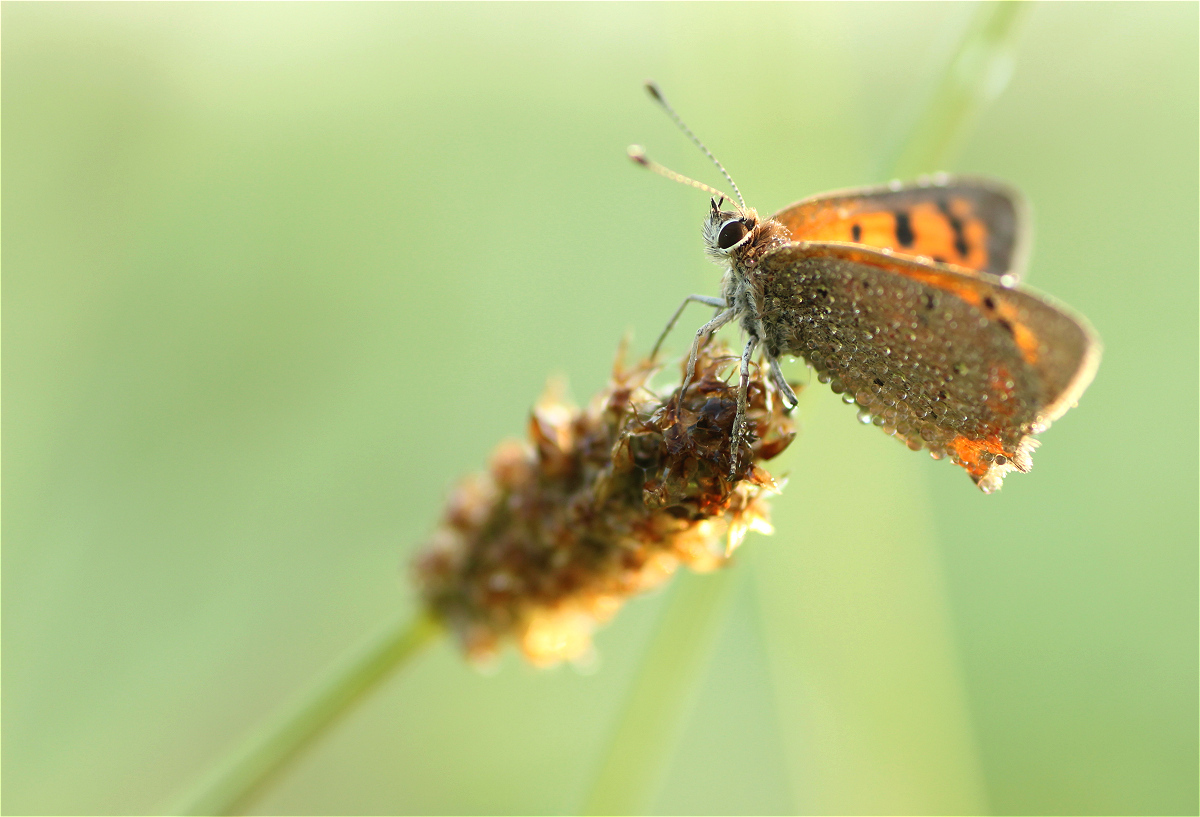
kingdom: Animalia
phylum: Arthropoda
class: Insecta
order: Lepidoptera
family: Lycaenidae
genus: Lycaena
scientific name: Lycaena phlaeas
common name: Small copper
